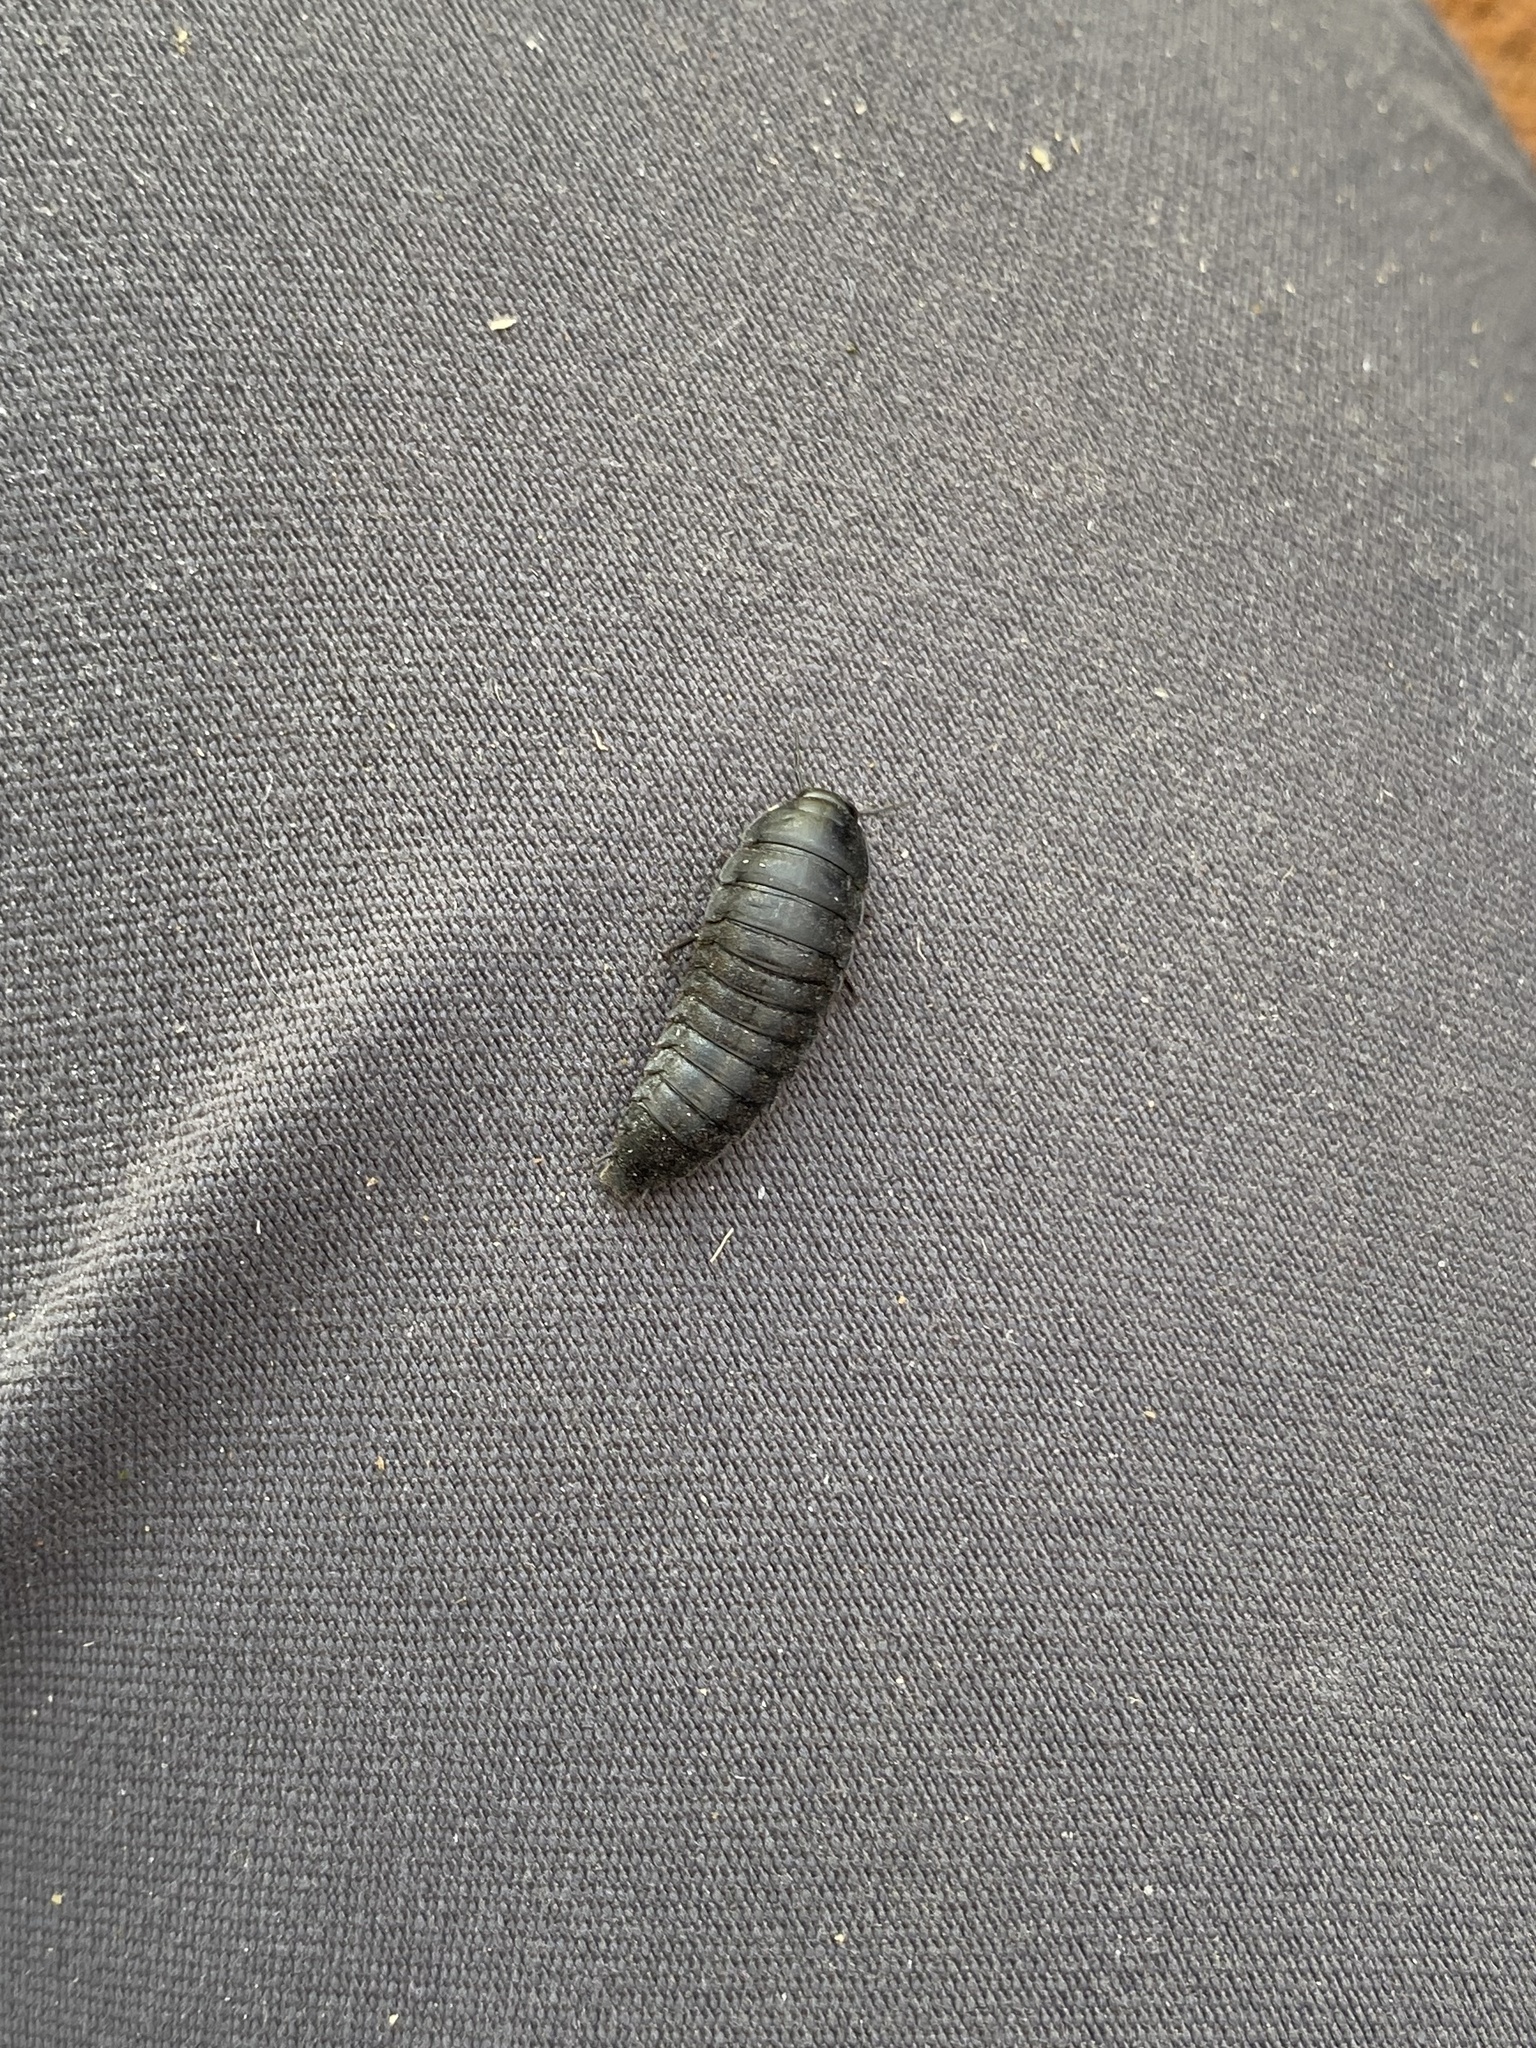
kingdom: Animalia
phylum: Arthropoda
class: Insecta
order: Coleoptera
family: Staphylinidae
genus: Heterosilpha
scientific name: Heterosilpha ramosa
